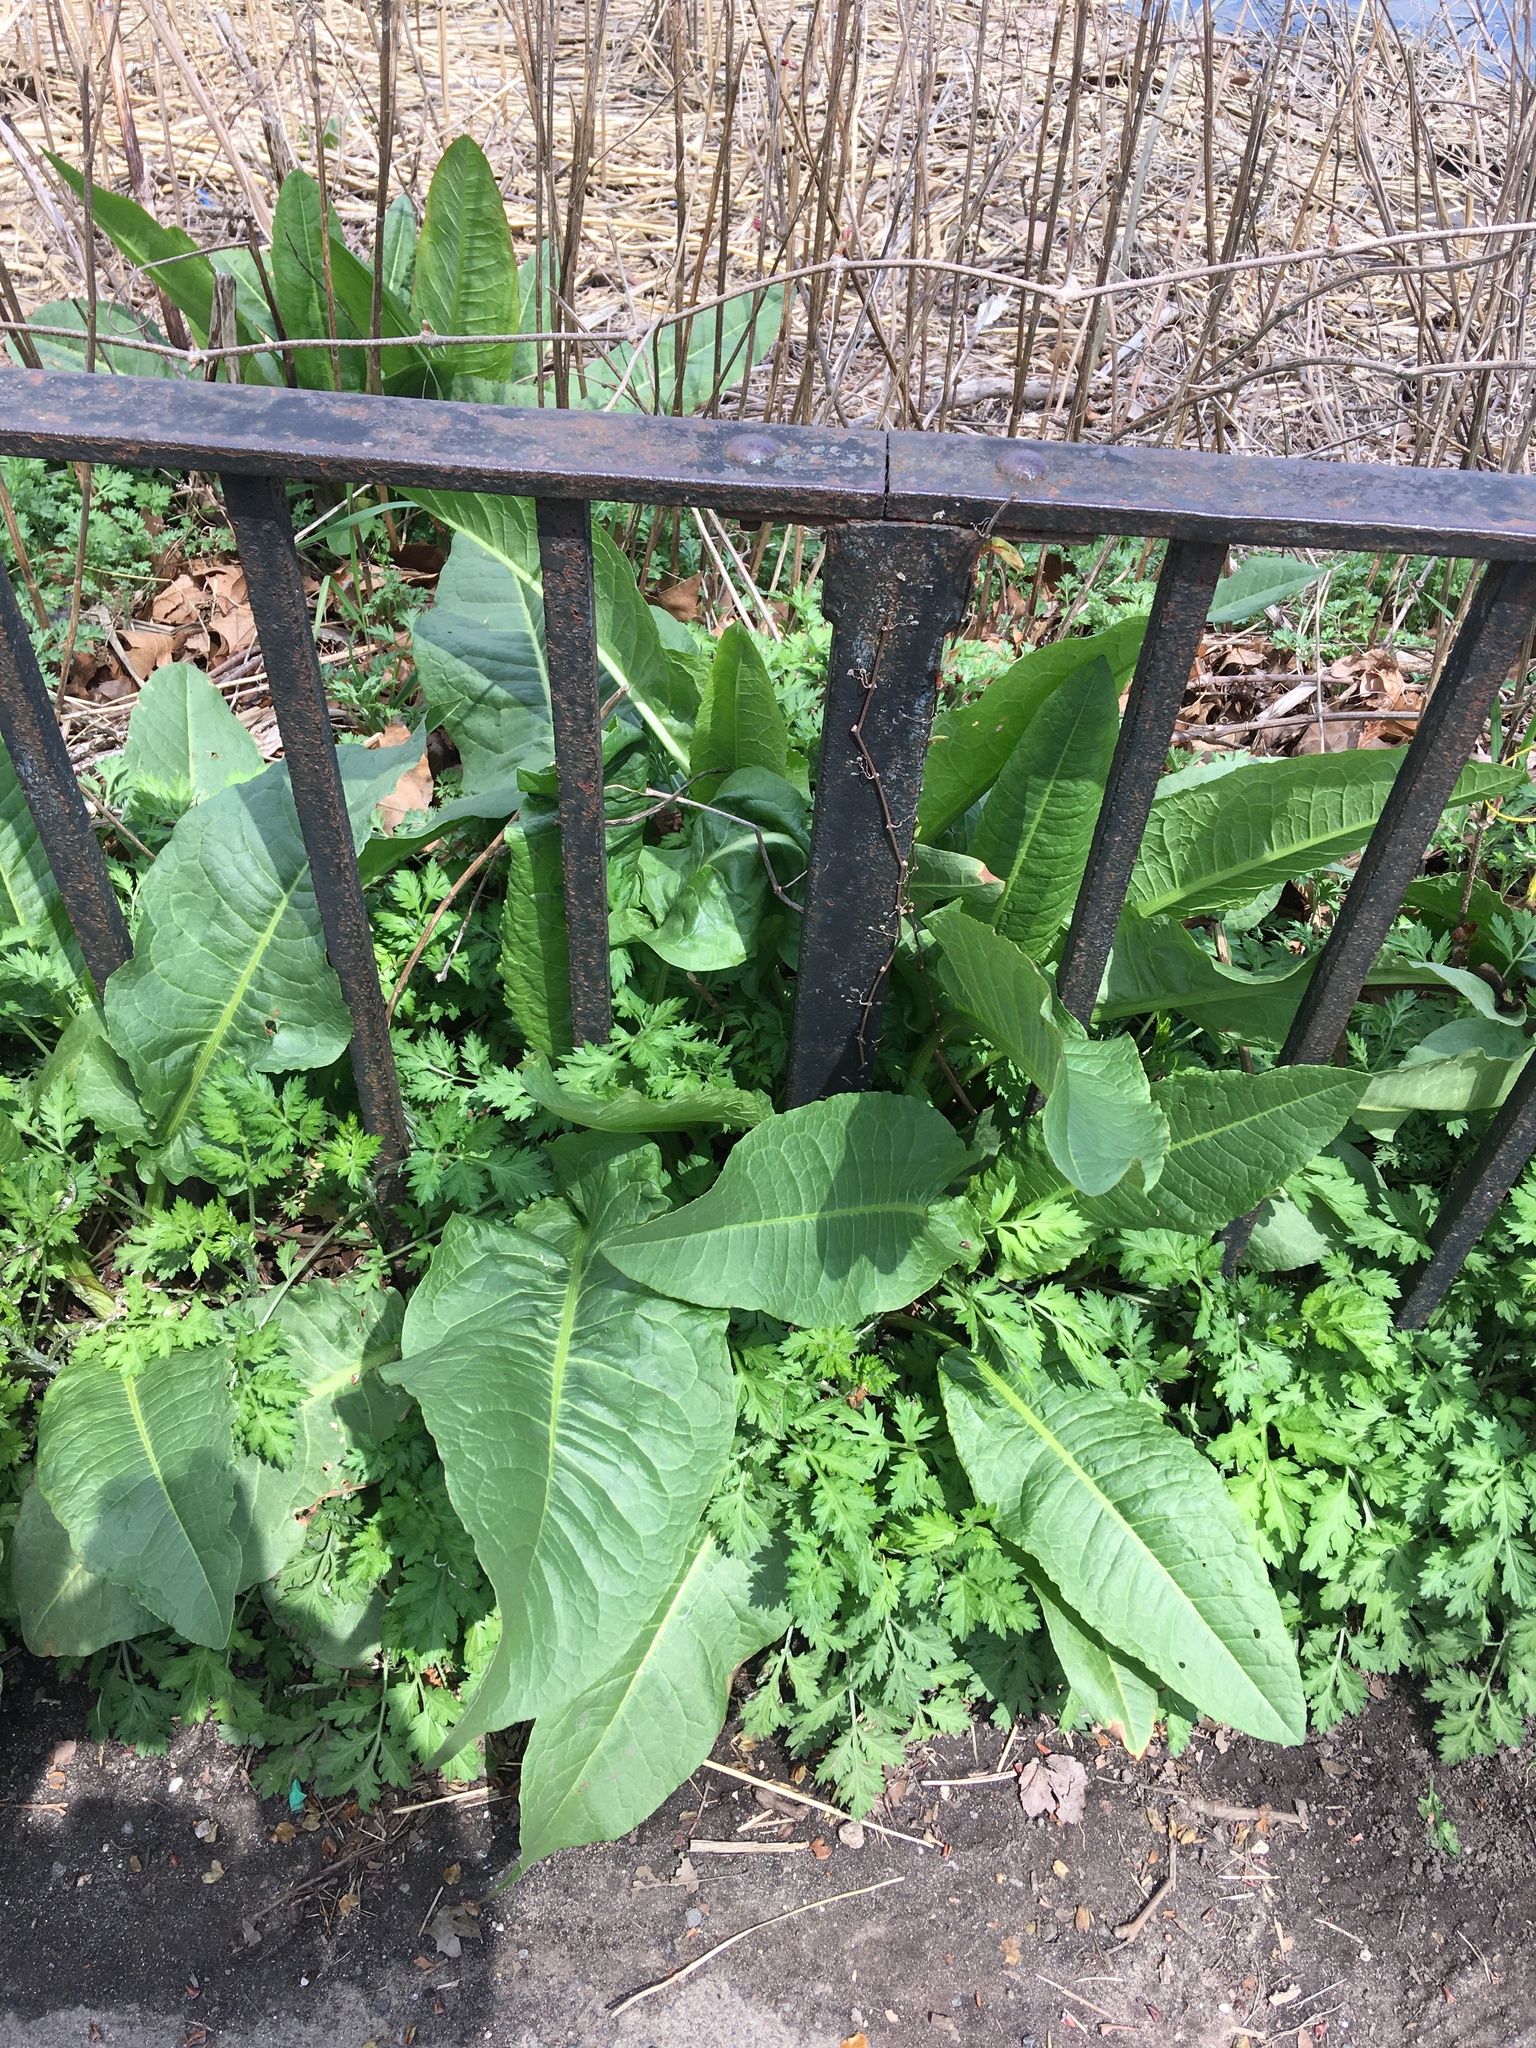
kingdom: Plantae
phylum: Tracheophyta
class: Magnoliopsida
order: Caryophyllales
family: Polygonaceae
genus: Rumex
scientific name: Rumex cristatus
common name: Greek dock
